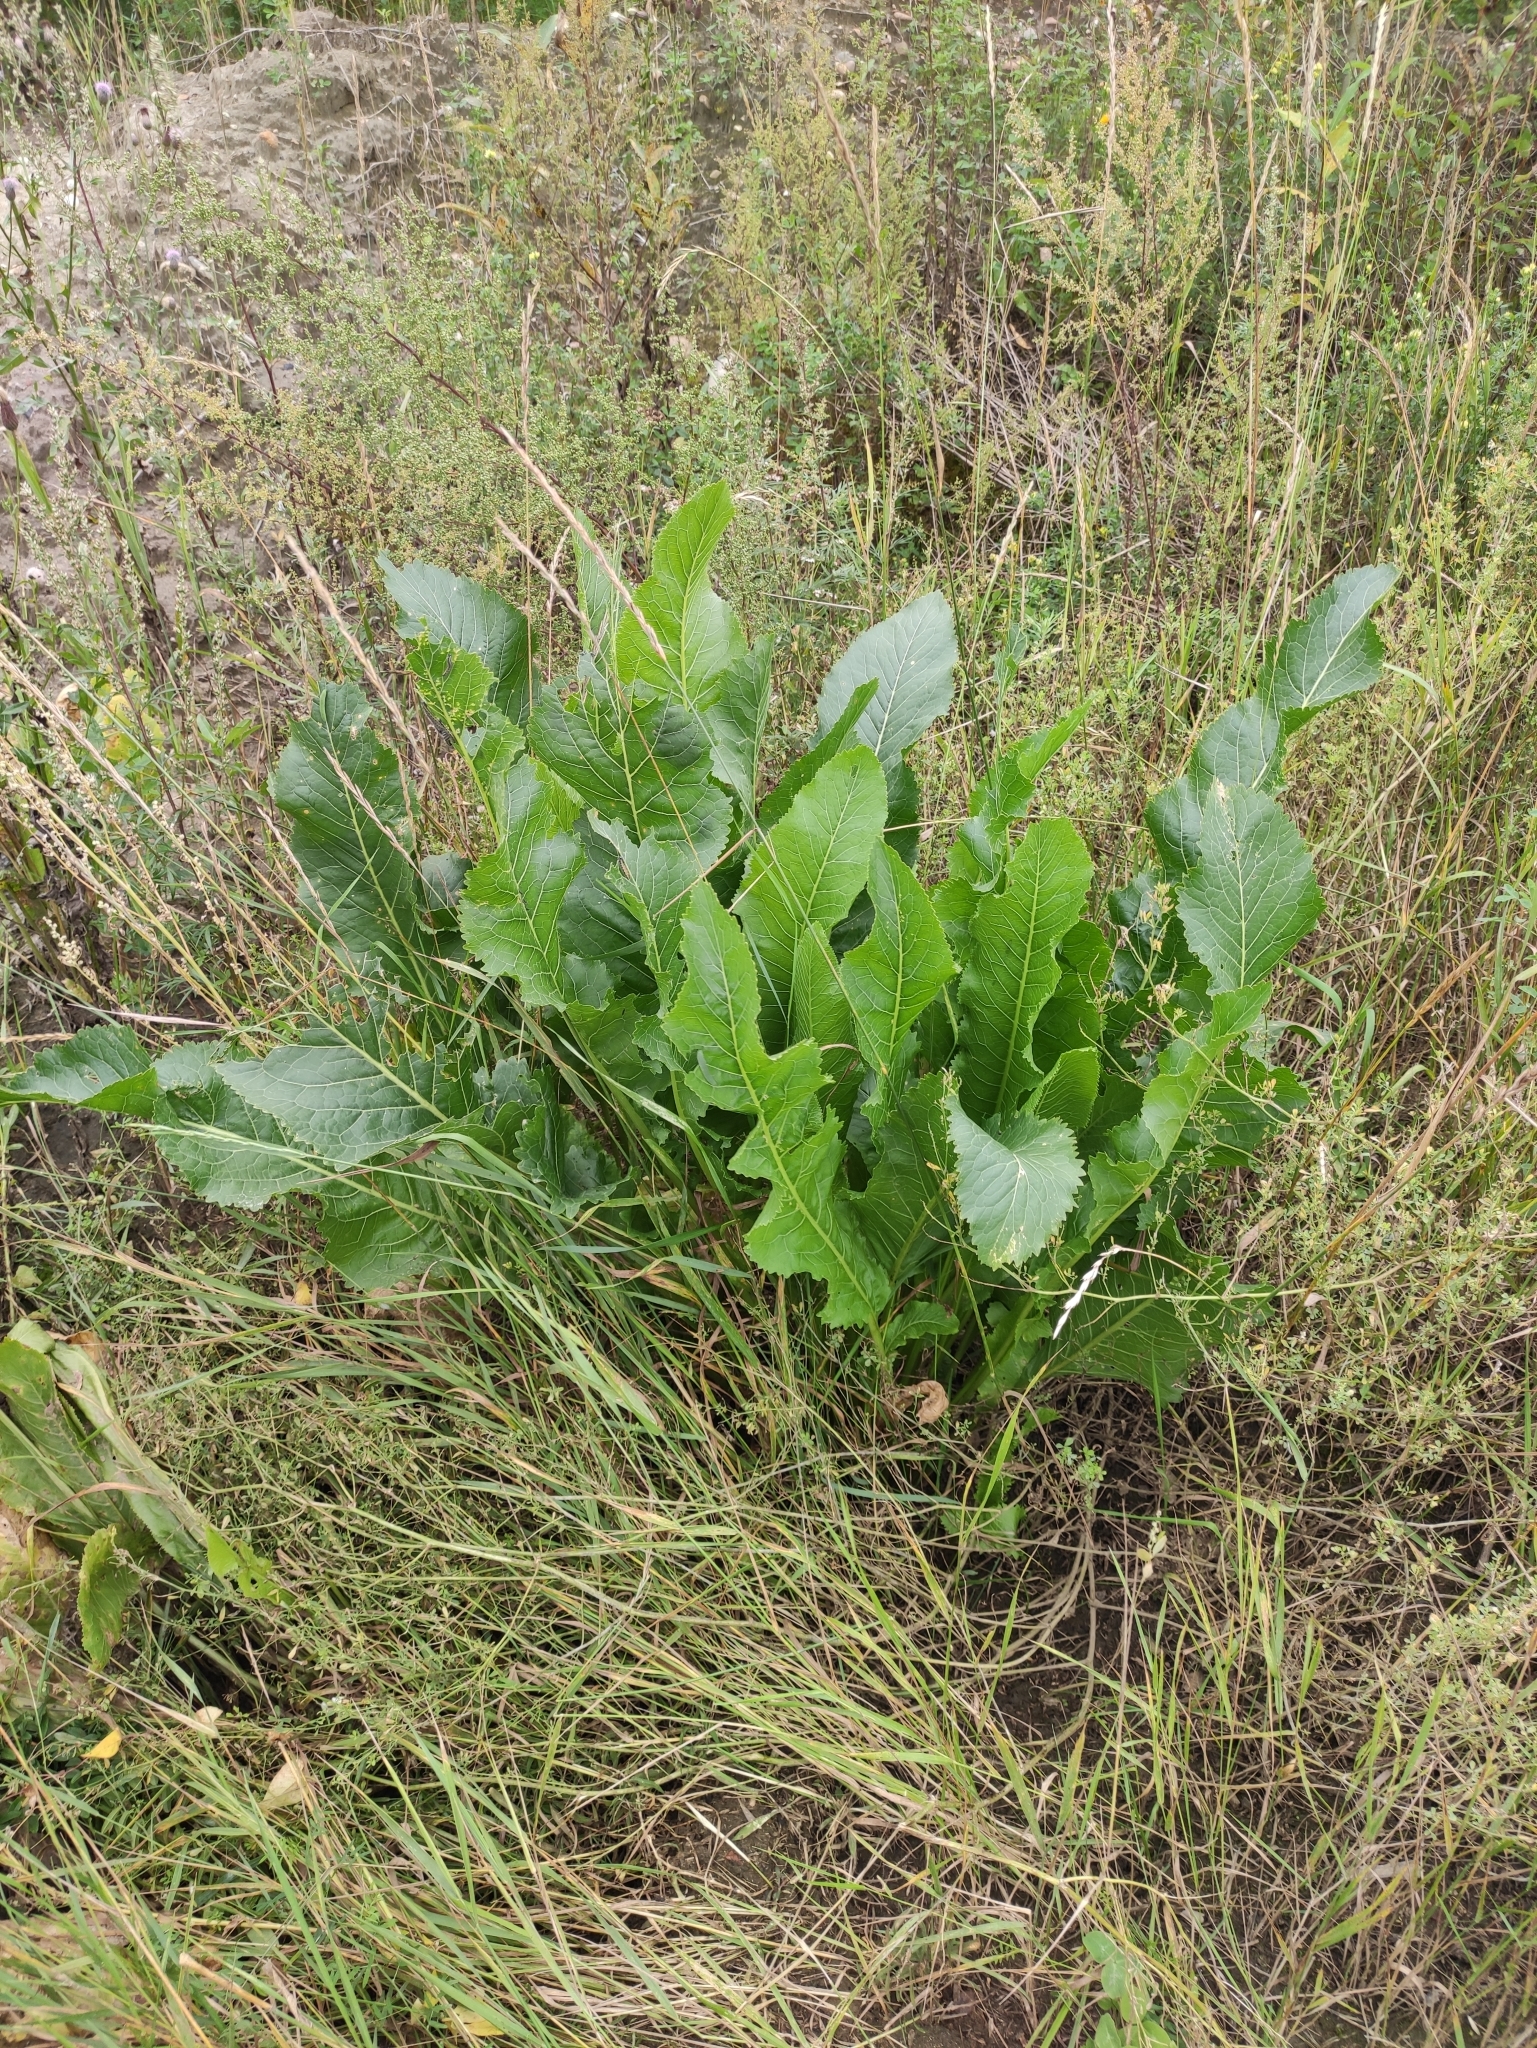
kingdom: Plantae
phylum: Tracheophyta
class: Magnoliopsida
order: Brassicales
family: Brassicaceae
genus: Armoracia
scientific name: Armoracia rusticana
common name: Horseradish
